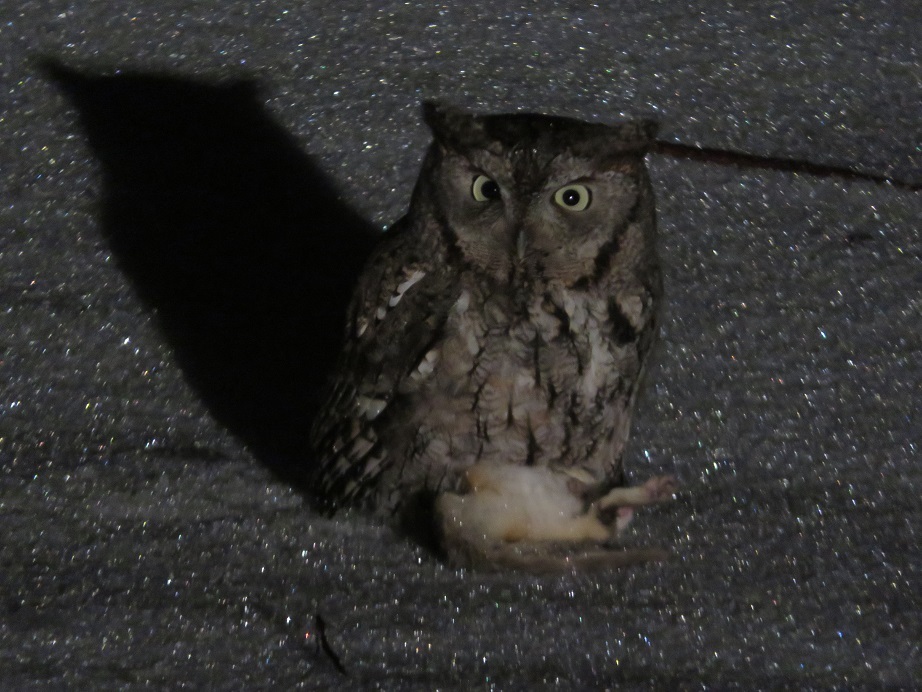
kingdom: Animalia
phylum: Chordata
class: Aves
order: Strigiformes
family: Strigidae
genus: Megascops
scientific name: Megascops asio
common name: Eastern screech-owl
